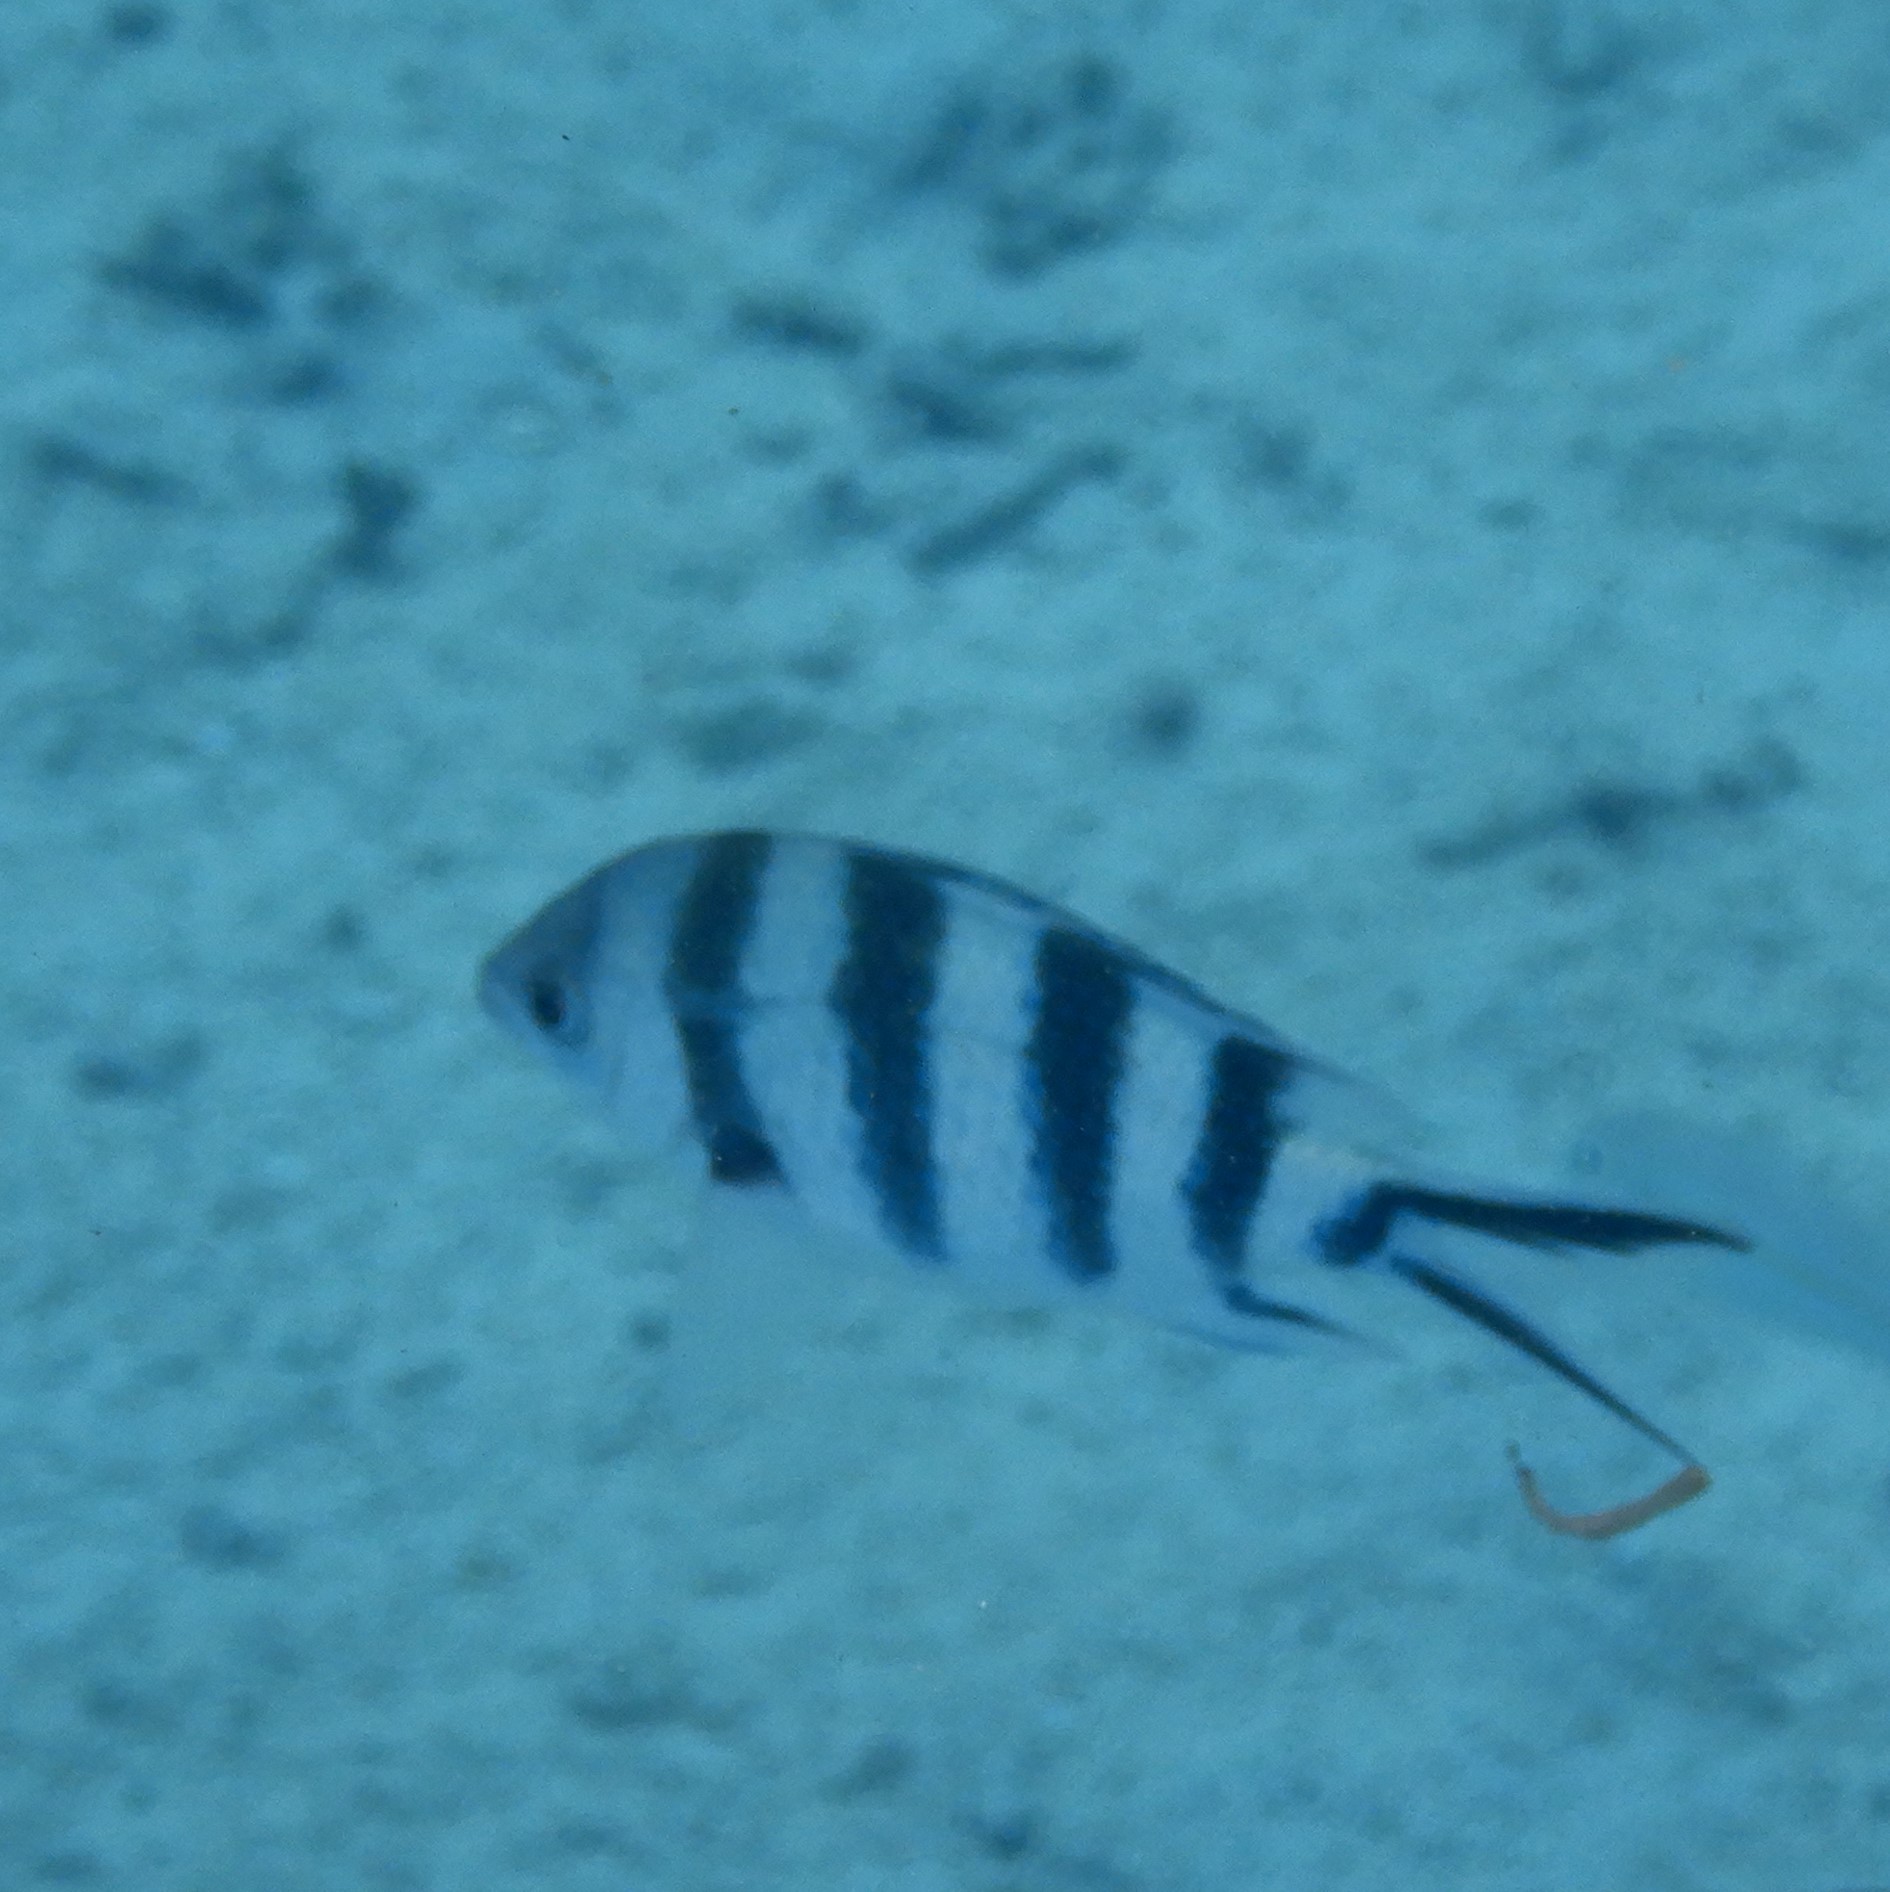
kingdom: Animalia
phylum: Chordata
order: Perciformes
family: Pomacentridae
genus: Abudefduf
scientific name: Abudefduf sexfasciatus
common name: Scissortail sergeant
